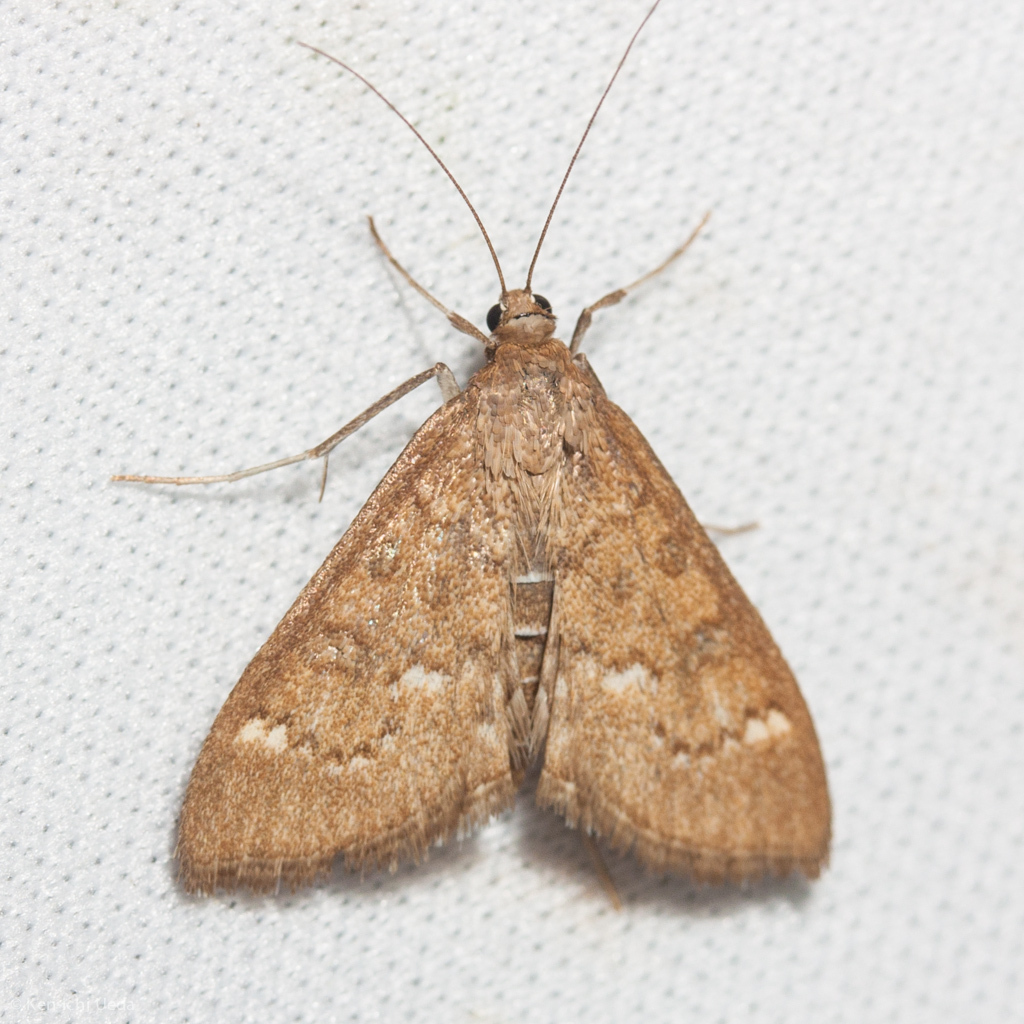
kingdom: Animalia
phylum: Arthropoda
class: Insecta
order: Lepidoptera
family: Crambidae
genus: Mecyna
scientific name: Mecyna mustelinalis
